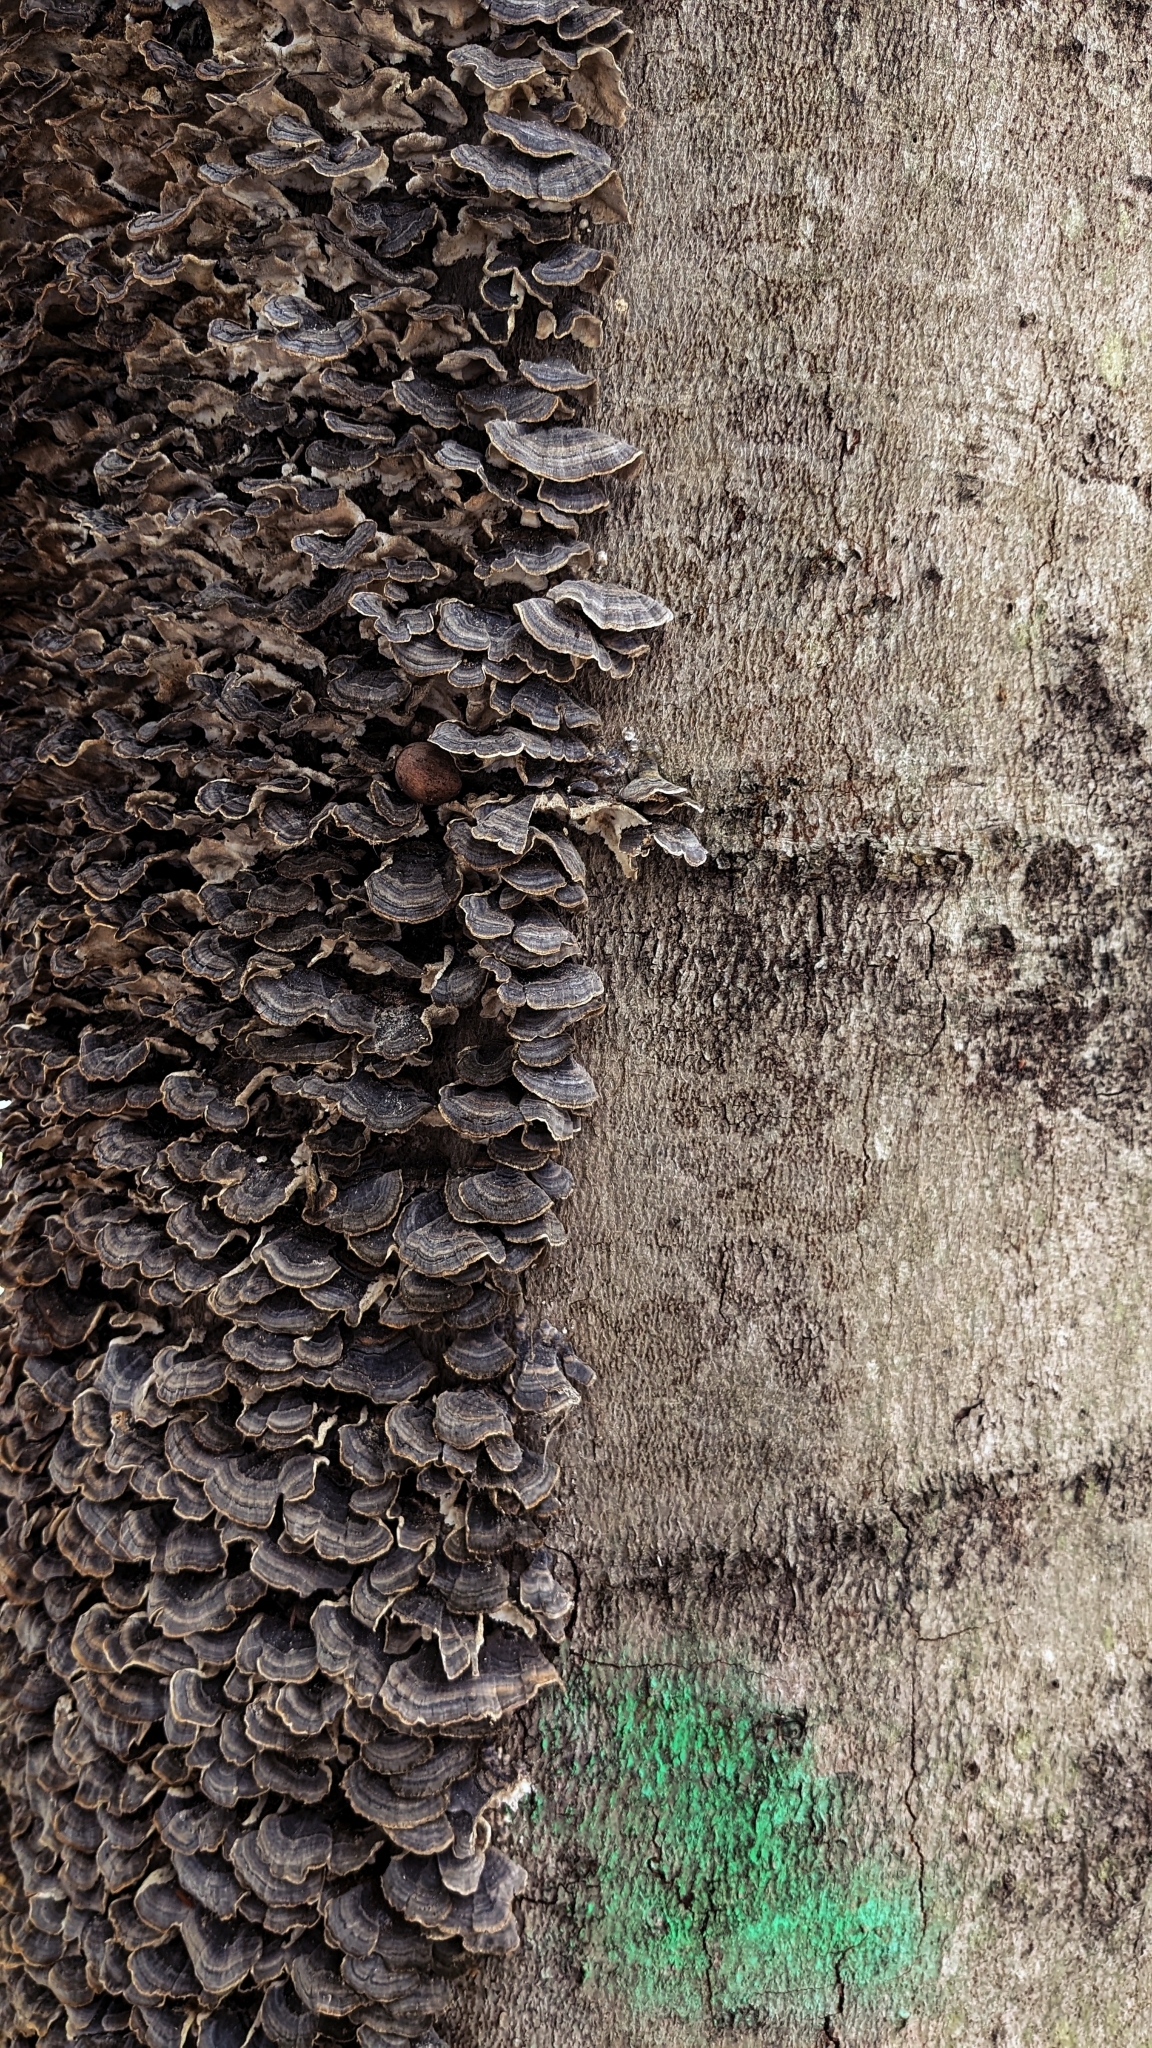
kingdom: Fungi
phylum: Basidiomycota
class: Agaricomycetes
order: Polyporales
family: Polyporaceae
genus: Trametes
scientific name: Trametes versicolor
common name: Turkeytail
